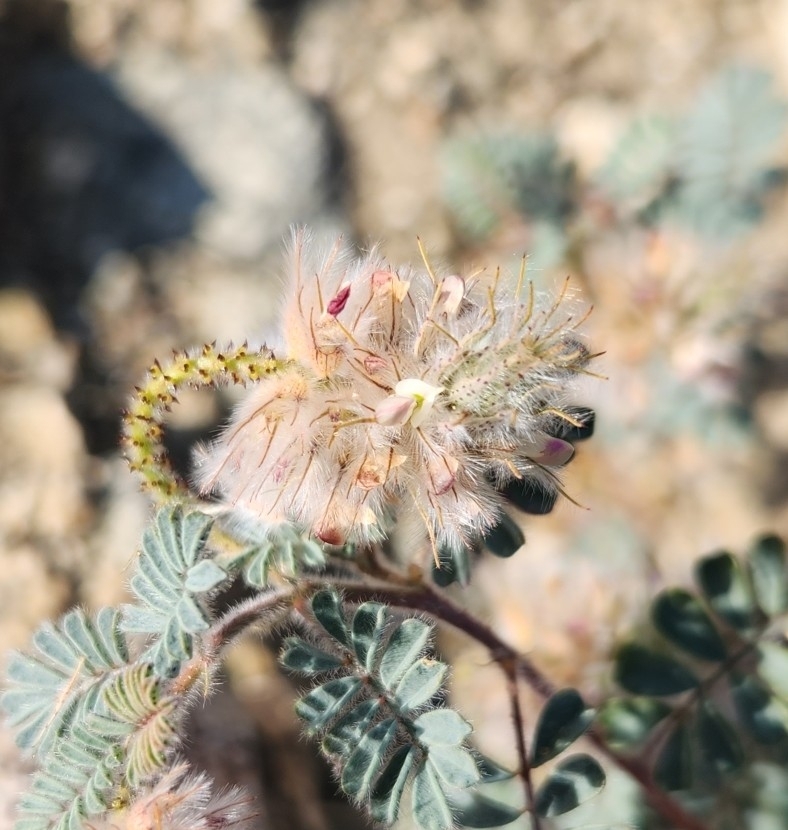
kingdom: Plantae
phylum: Tracheophyta
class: Magnoliopsida
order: Fabales
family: Fabaceae
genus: Dalea
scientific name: Dalea mollis
